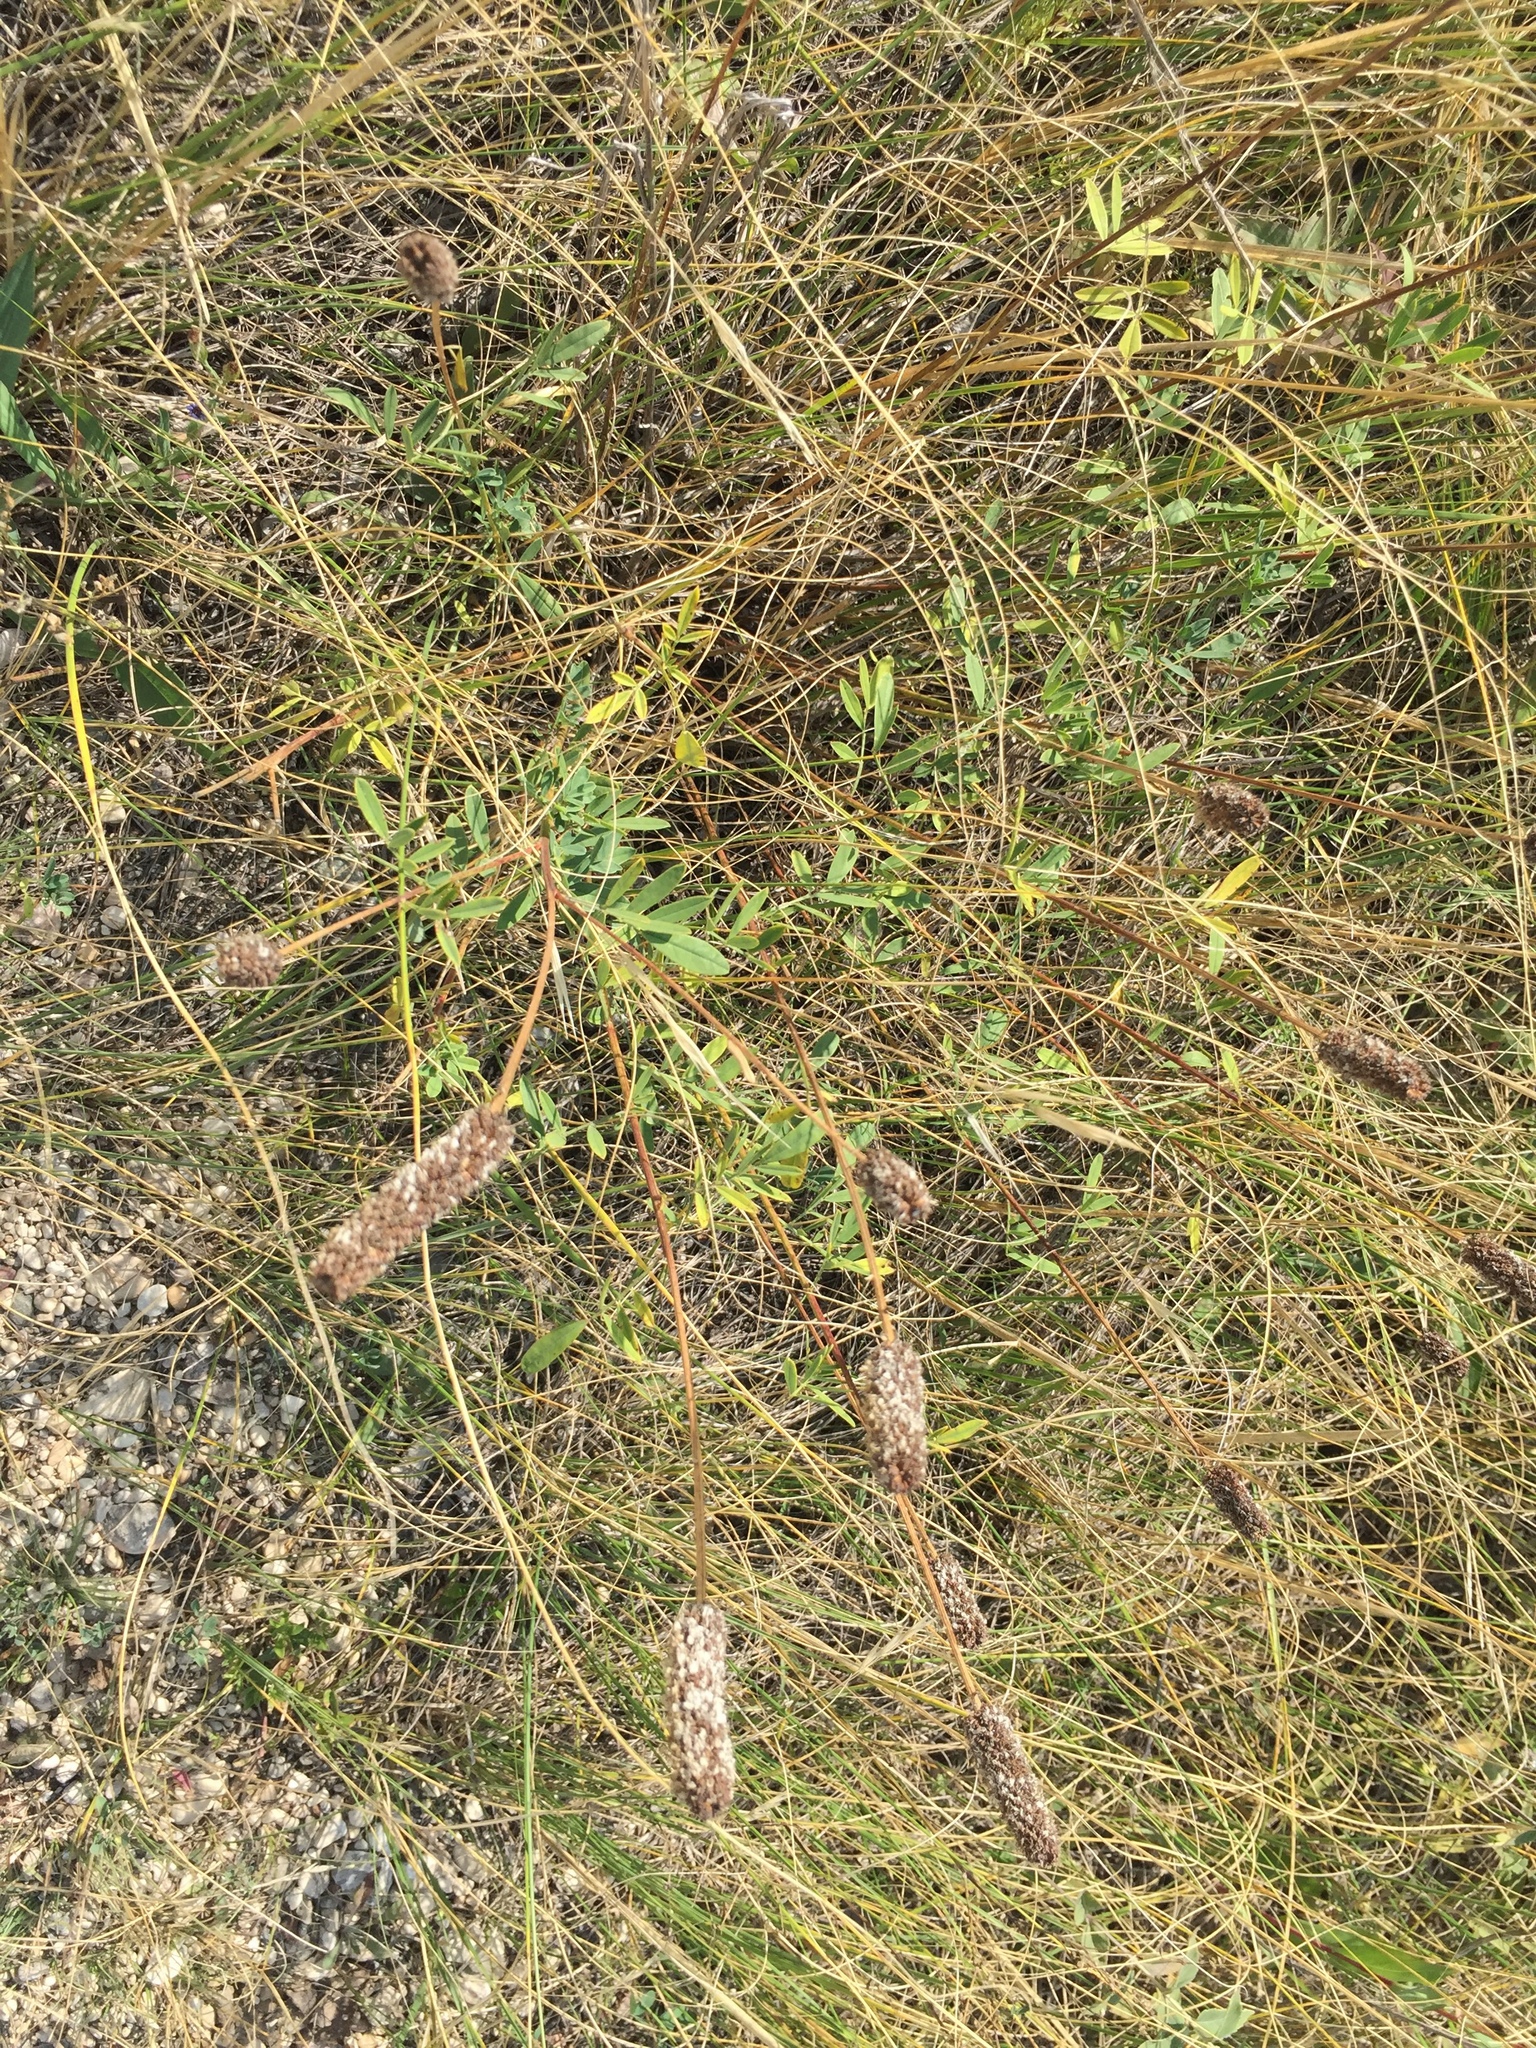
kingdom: Plantae
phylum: Tracheophyta
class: Magnoliopsida
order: Fabales
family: Fabaceae
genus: Dalea
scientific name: Dalea candida
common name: White prairie-clover
